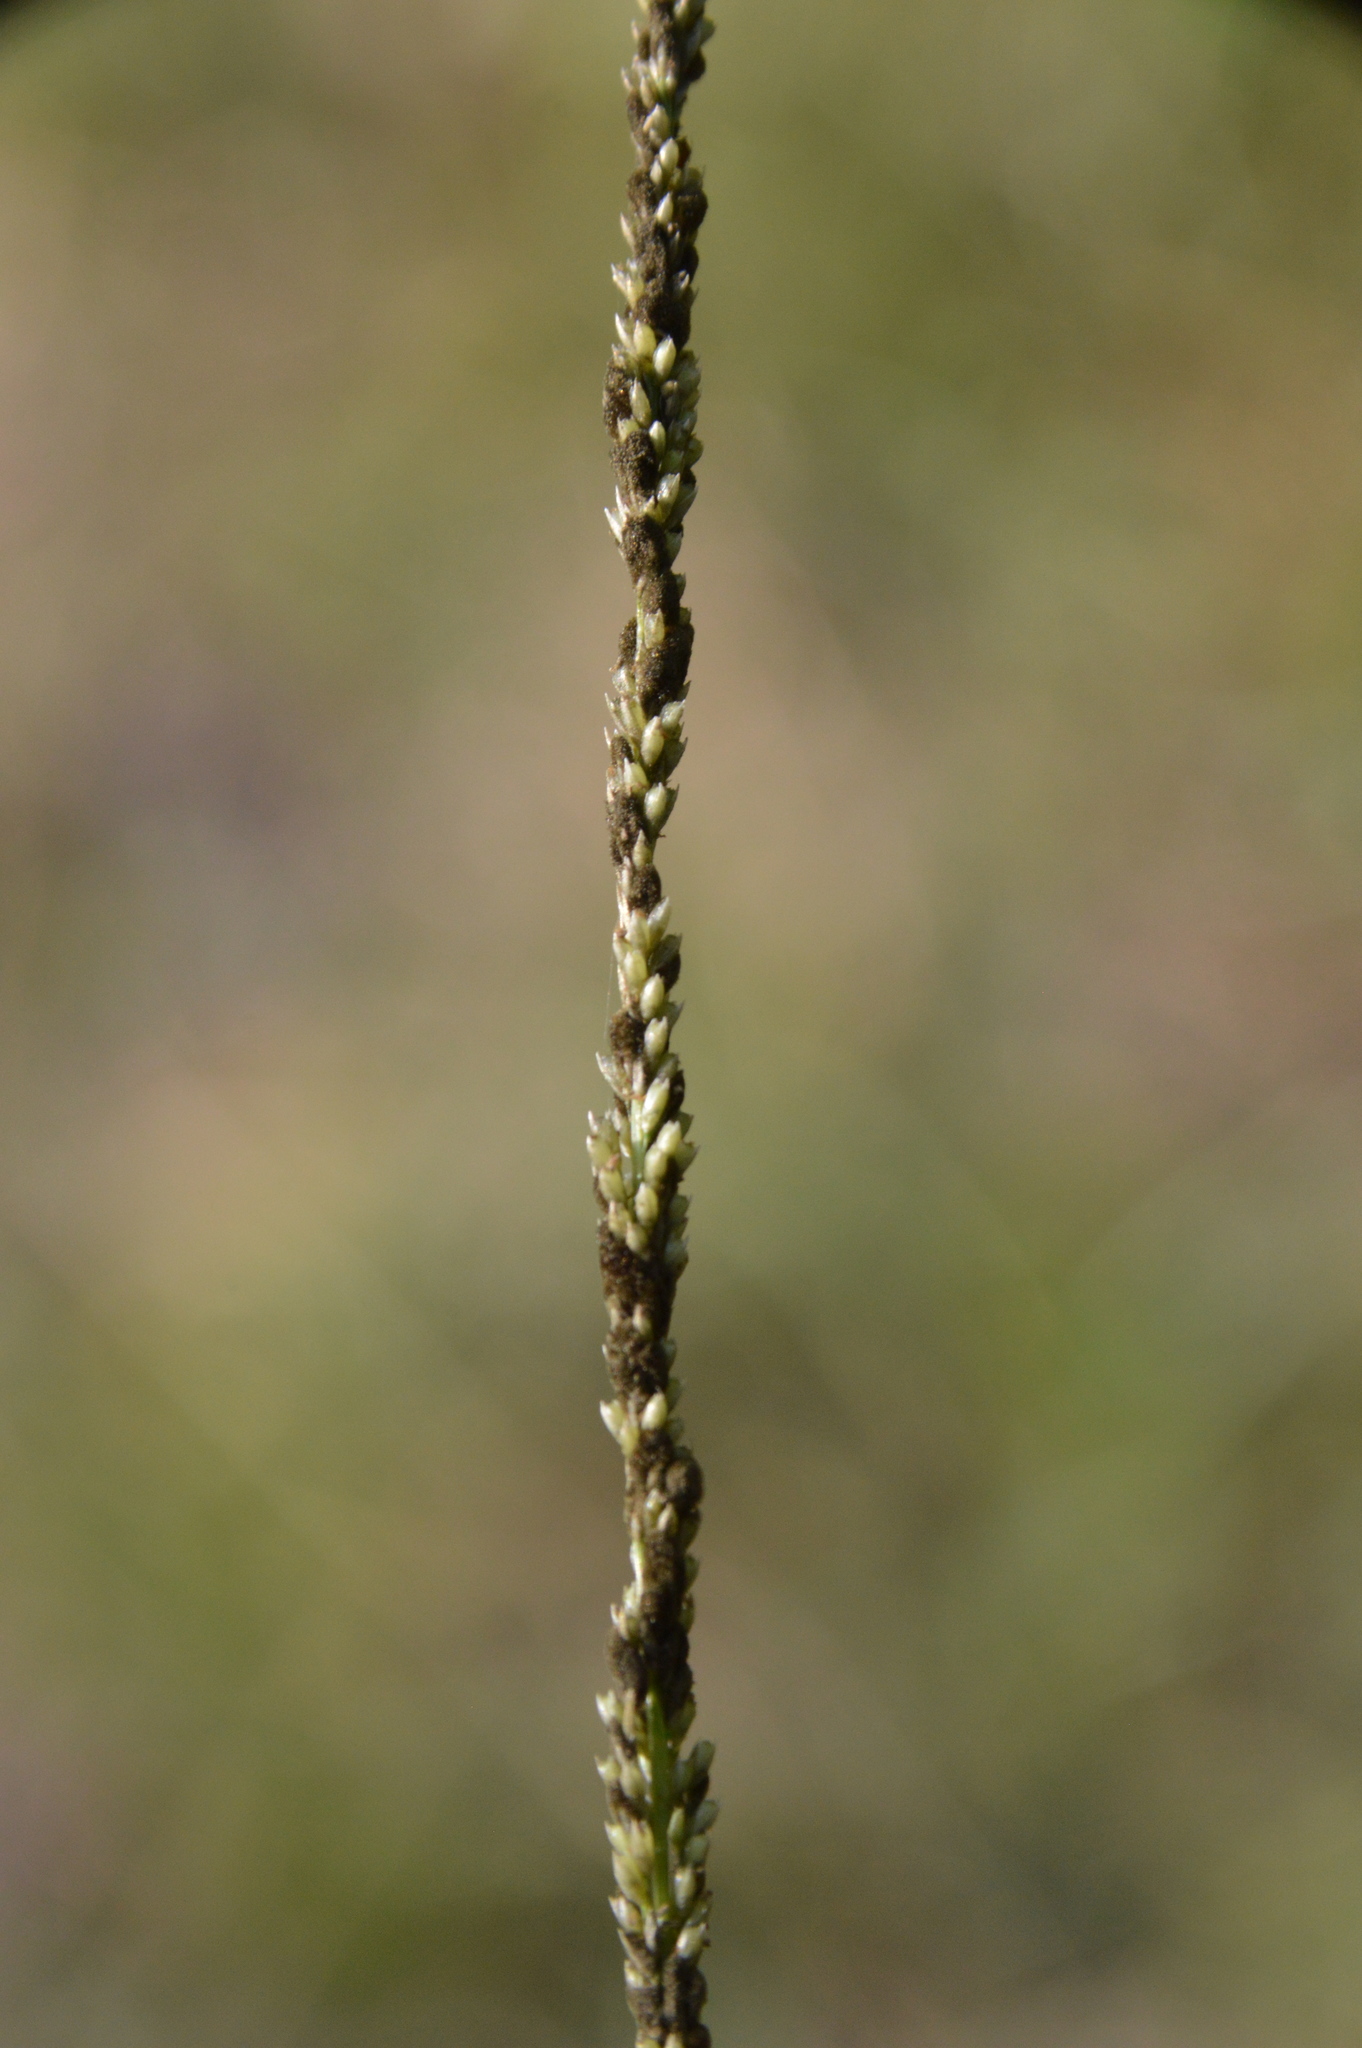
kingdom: Plantae
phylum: Tracheophyta
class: Liliopsida
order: Poales
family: Poaceae
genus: Sporobolus
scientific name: Sporobolus indicus
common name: Smut grass
